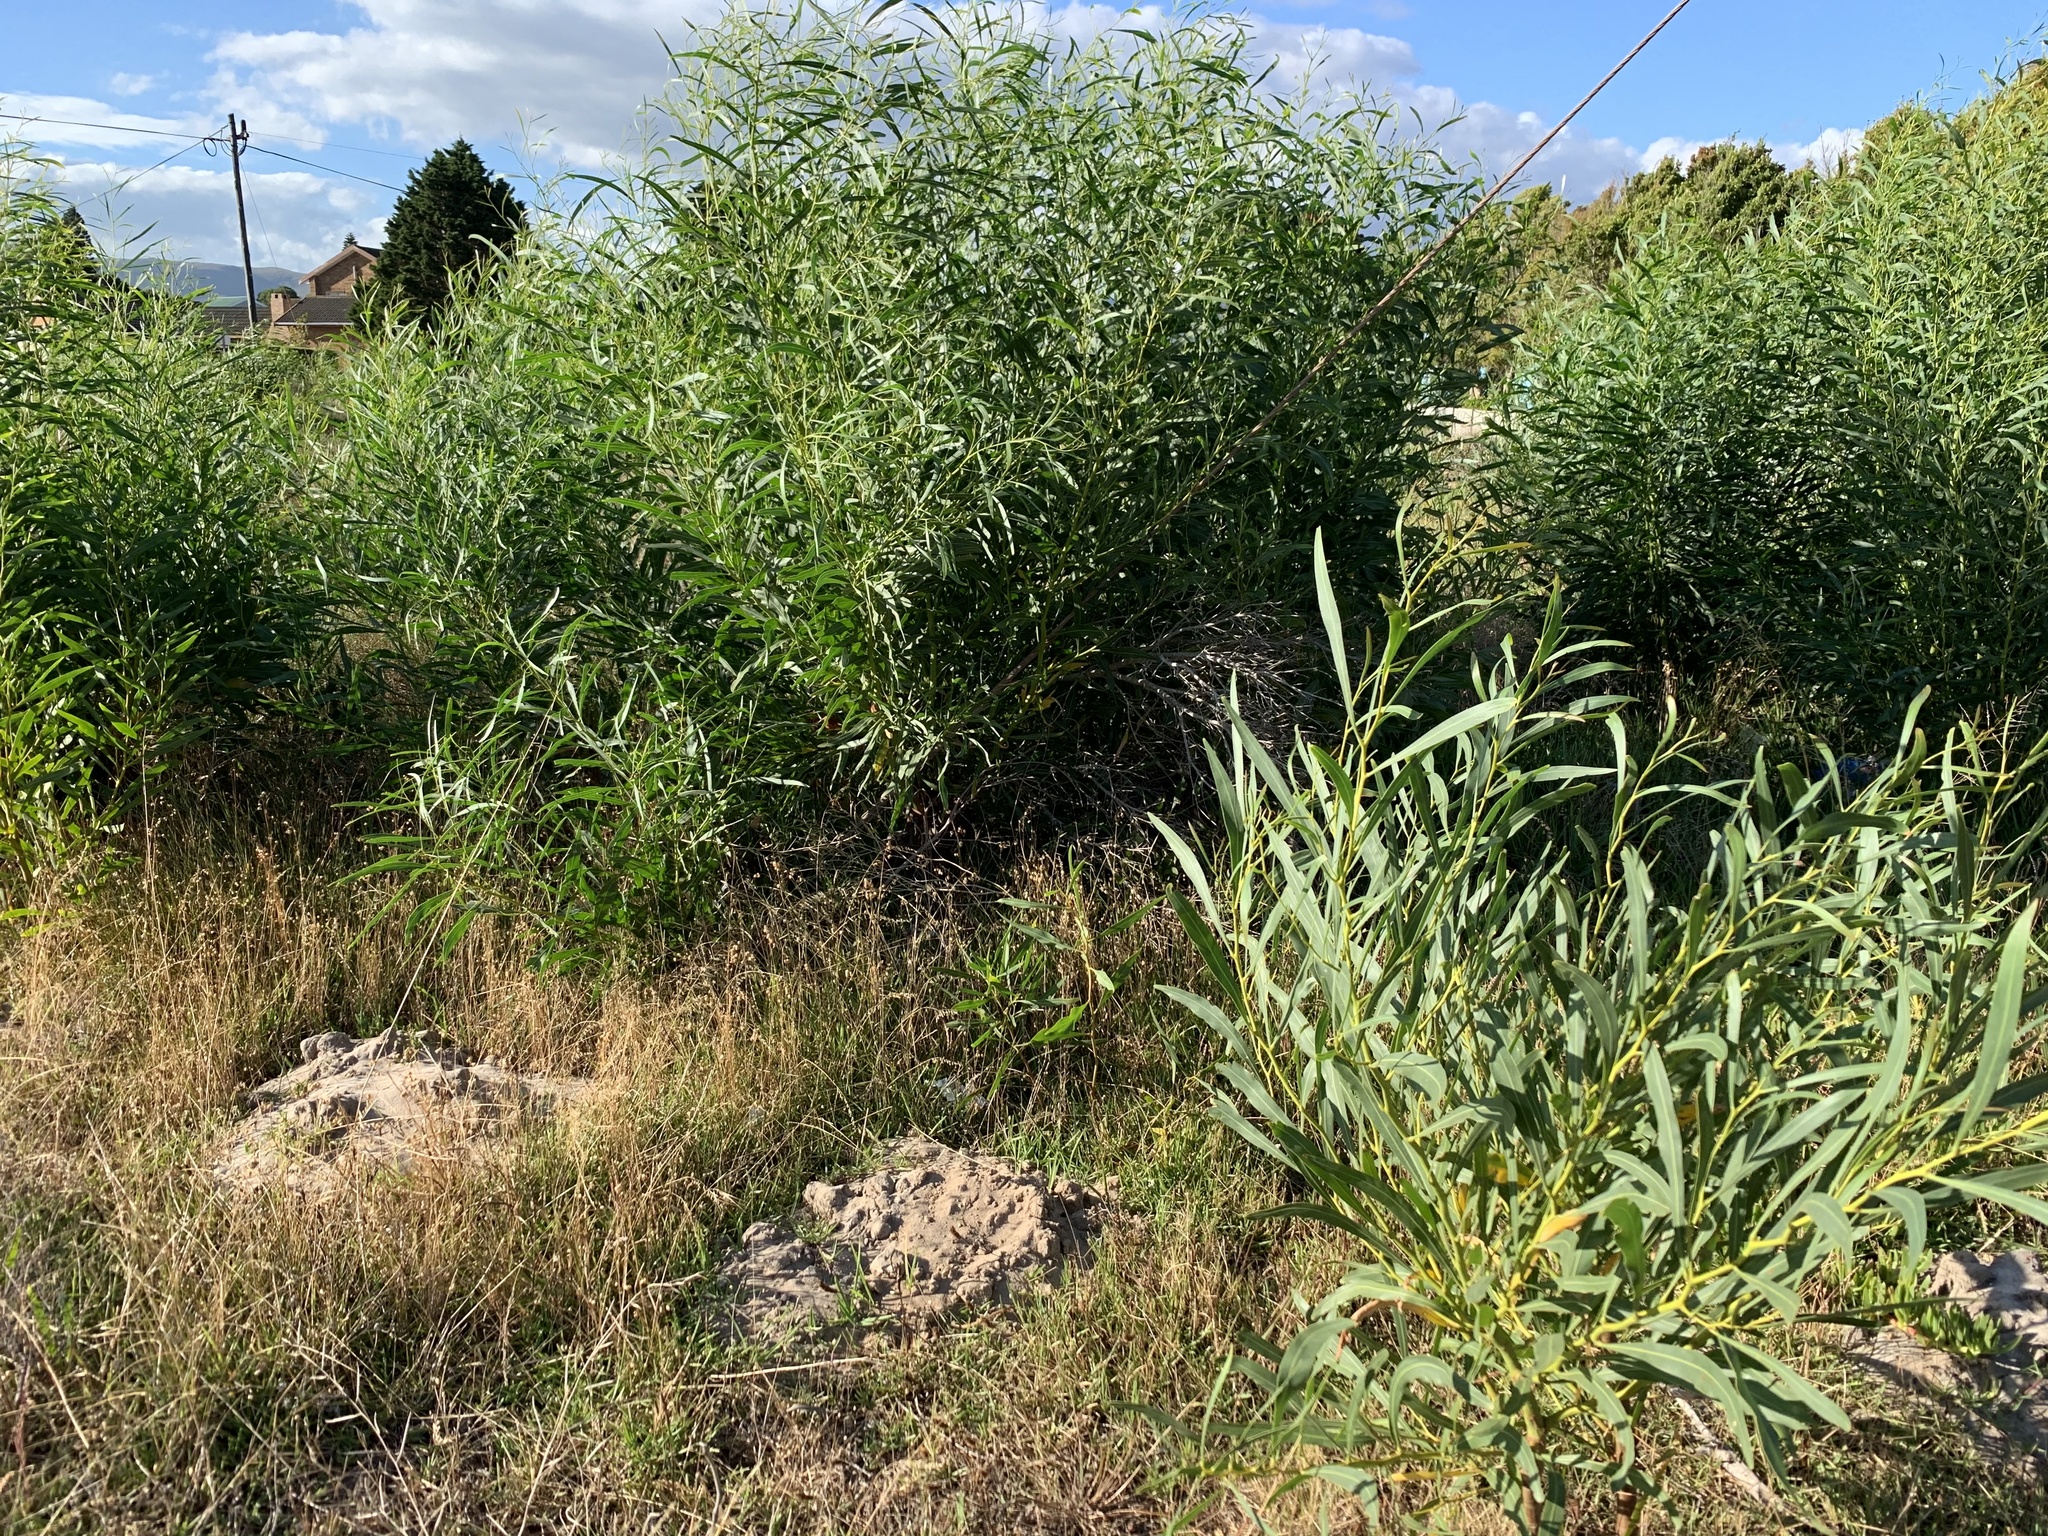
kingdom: Plantae
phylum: Tracheophyta
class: Magnoliopsida
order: Fabales
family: Fabaceae
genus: Acacia
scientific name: Acacia saligna
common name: Orange wattle
